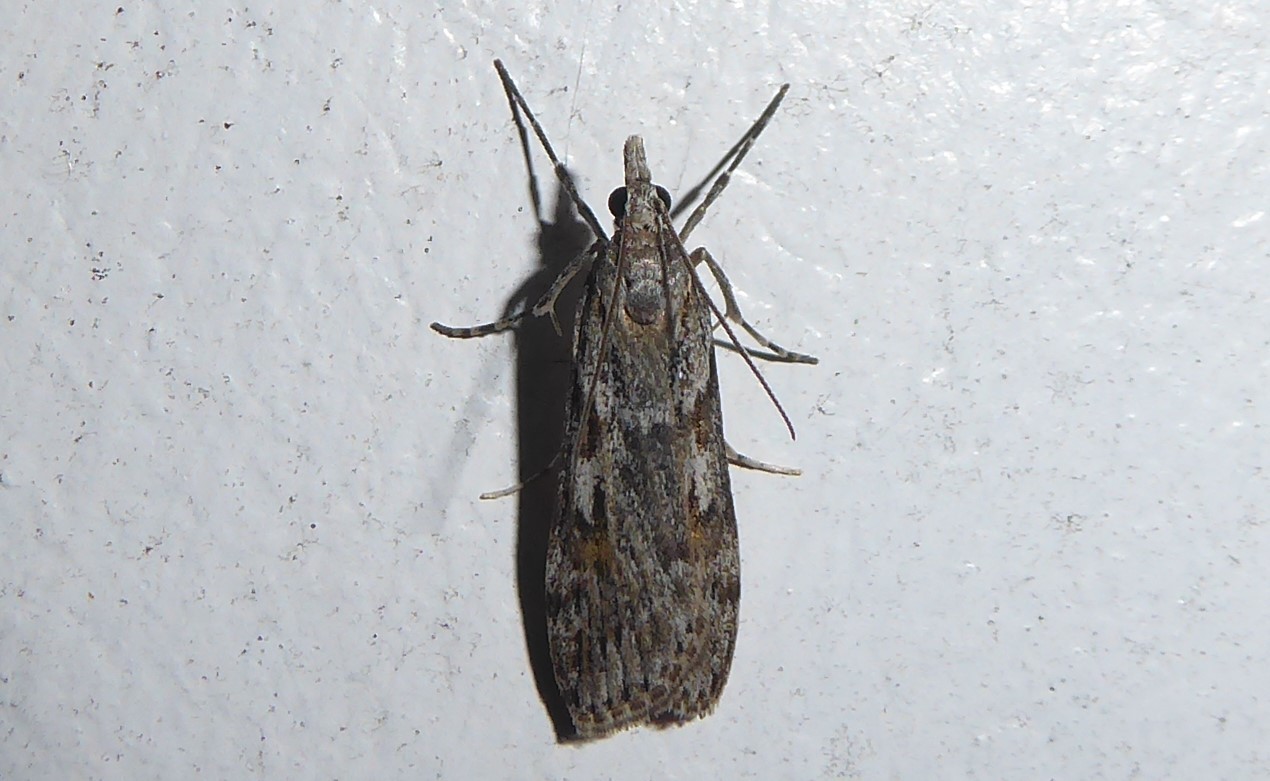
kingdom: Animalia
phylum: Arthropoda
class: Insecta
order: Lepidoptera
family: Crambidae
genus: Scoparia
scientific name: Scoparia halopis
